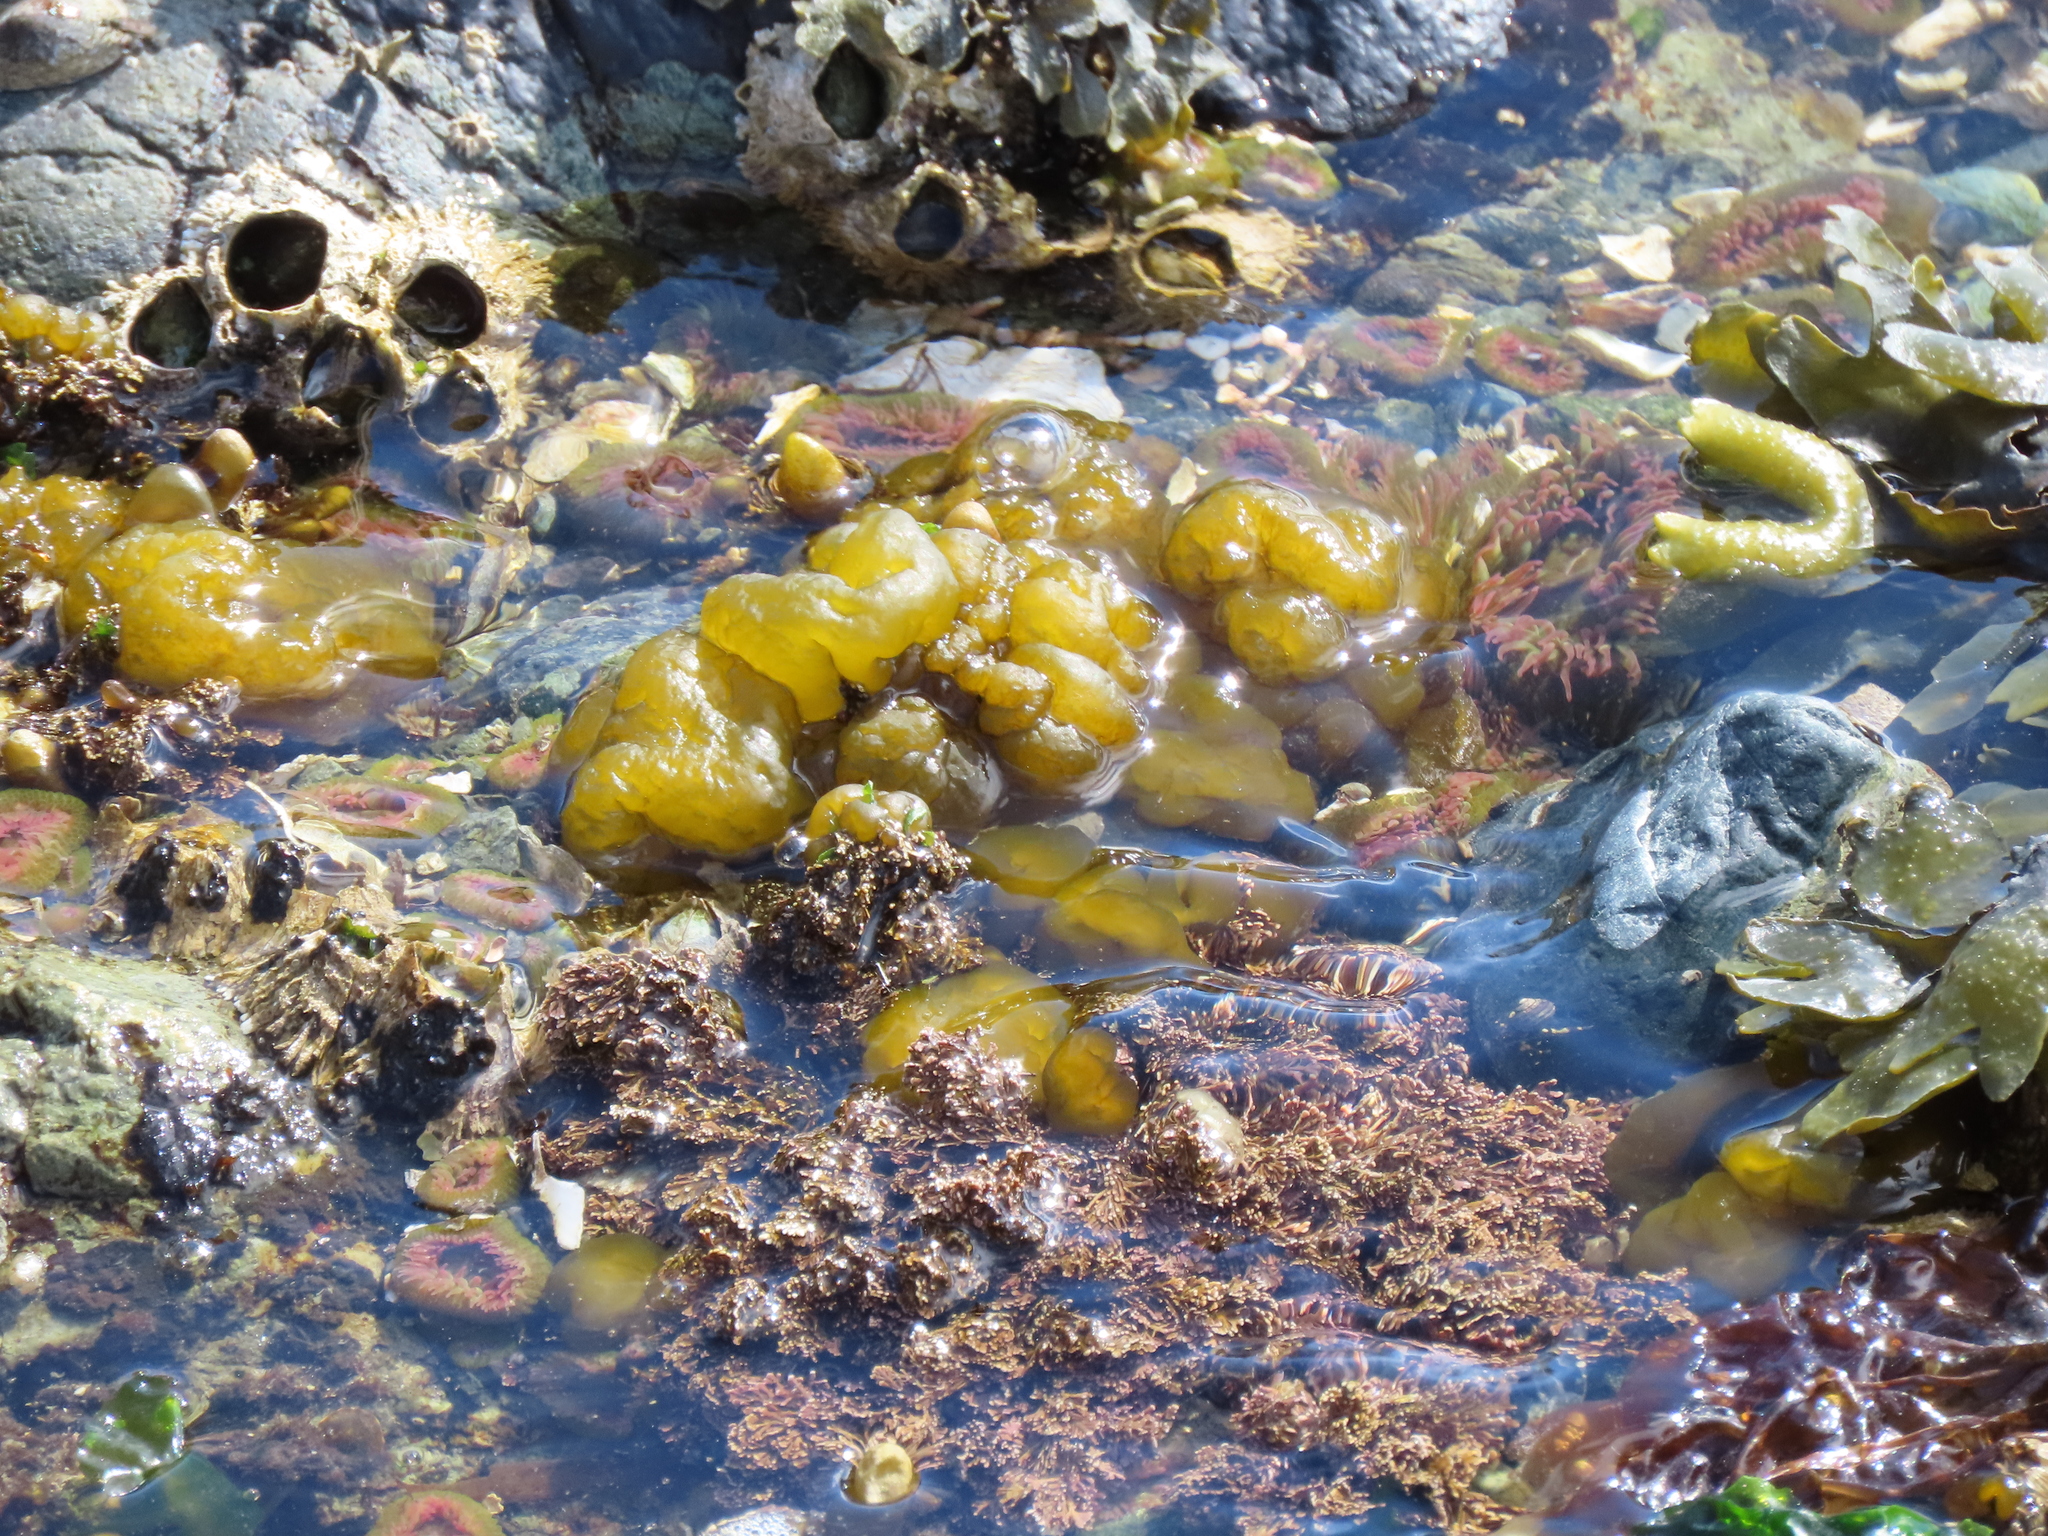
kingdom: Chromista
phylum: Ochrophyta
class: Phaeophyceae
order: Ectocarpales
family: Chordariaceae
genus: Leathesia
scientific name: Leathesia marina
